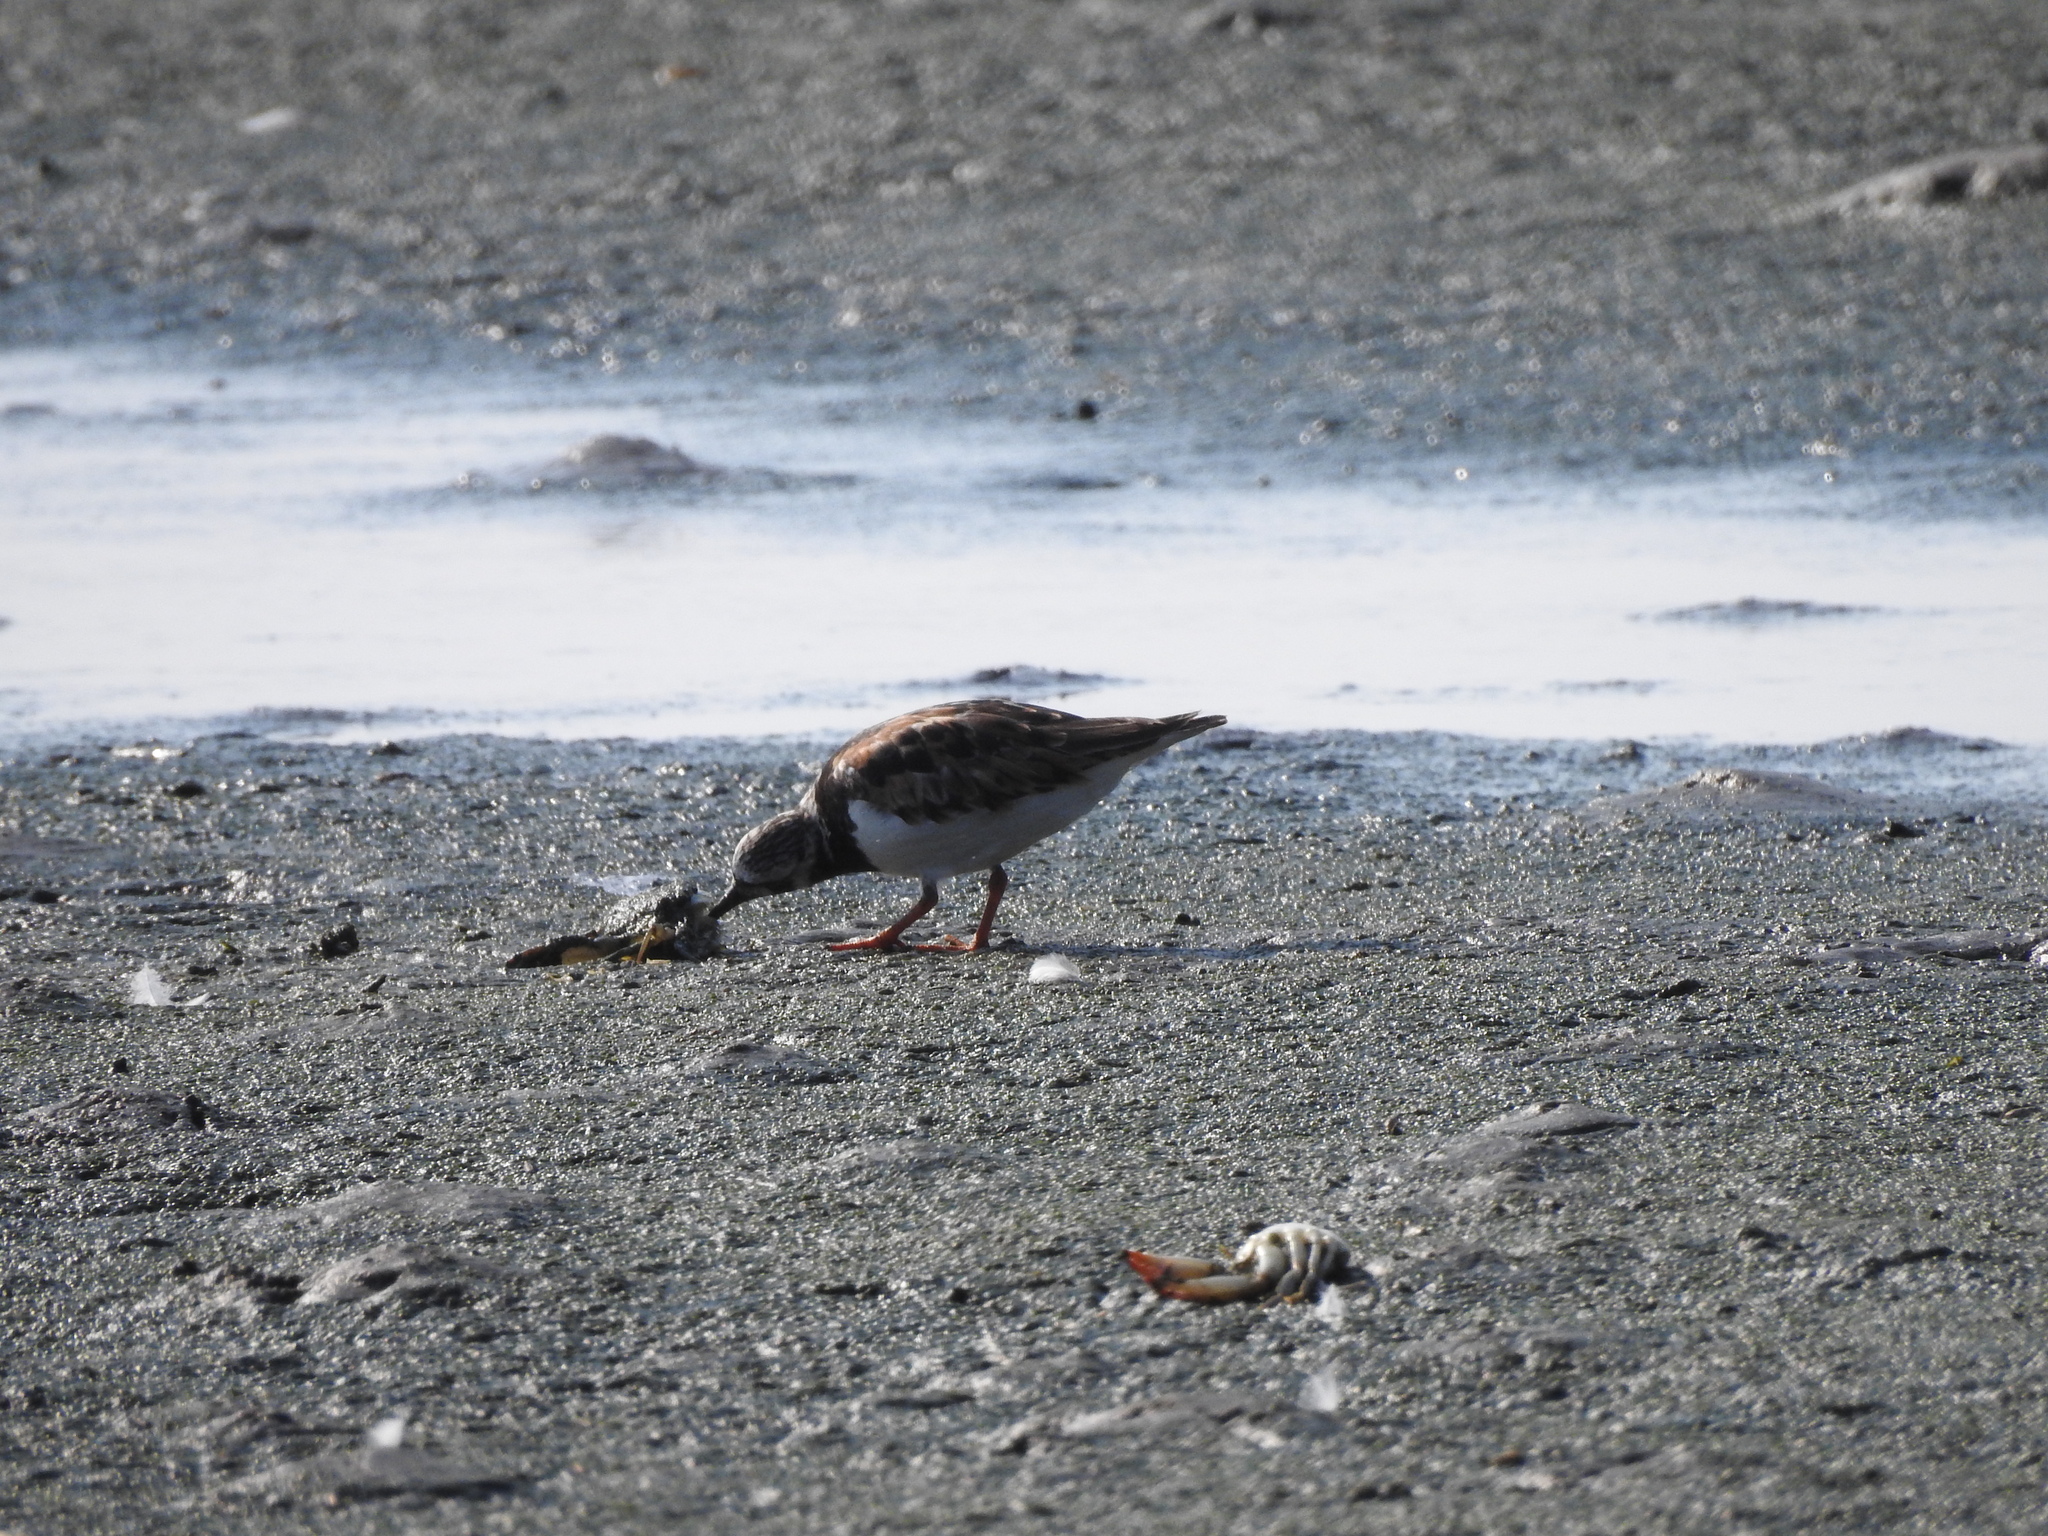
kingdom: Animalia
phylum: Chordata
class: Aves
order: Charadriiformes
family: Scolopacidae
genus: Arenaria
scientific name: Arenaria interpres
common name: Ruddy turnstone
